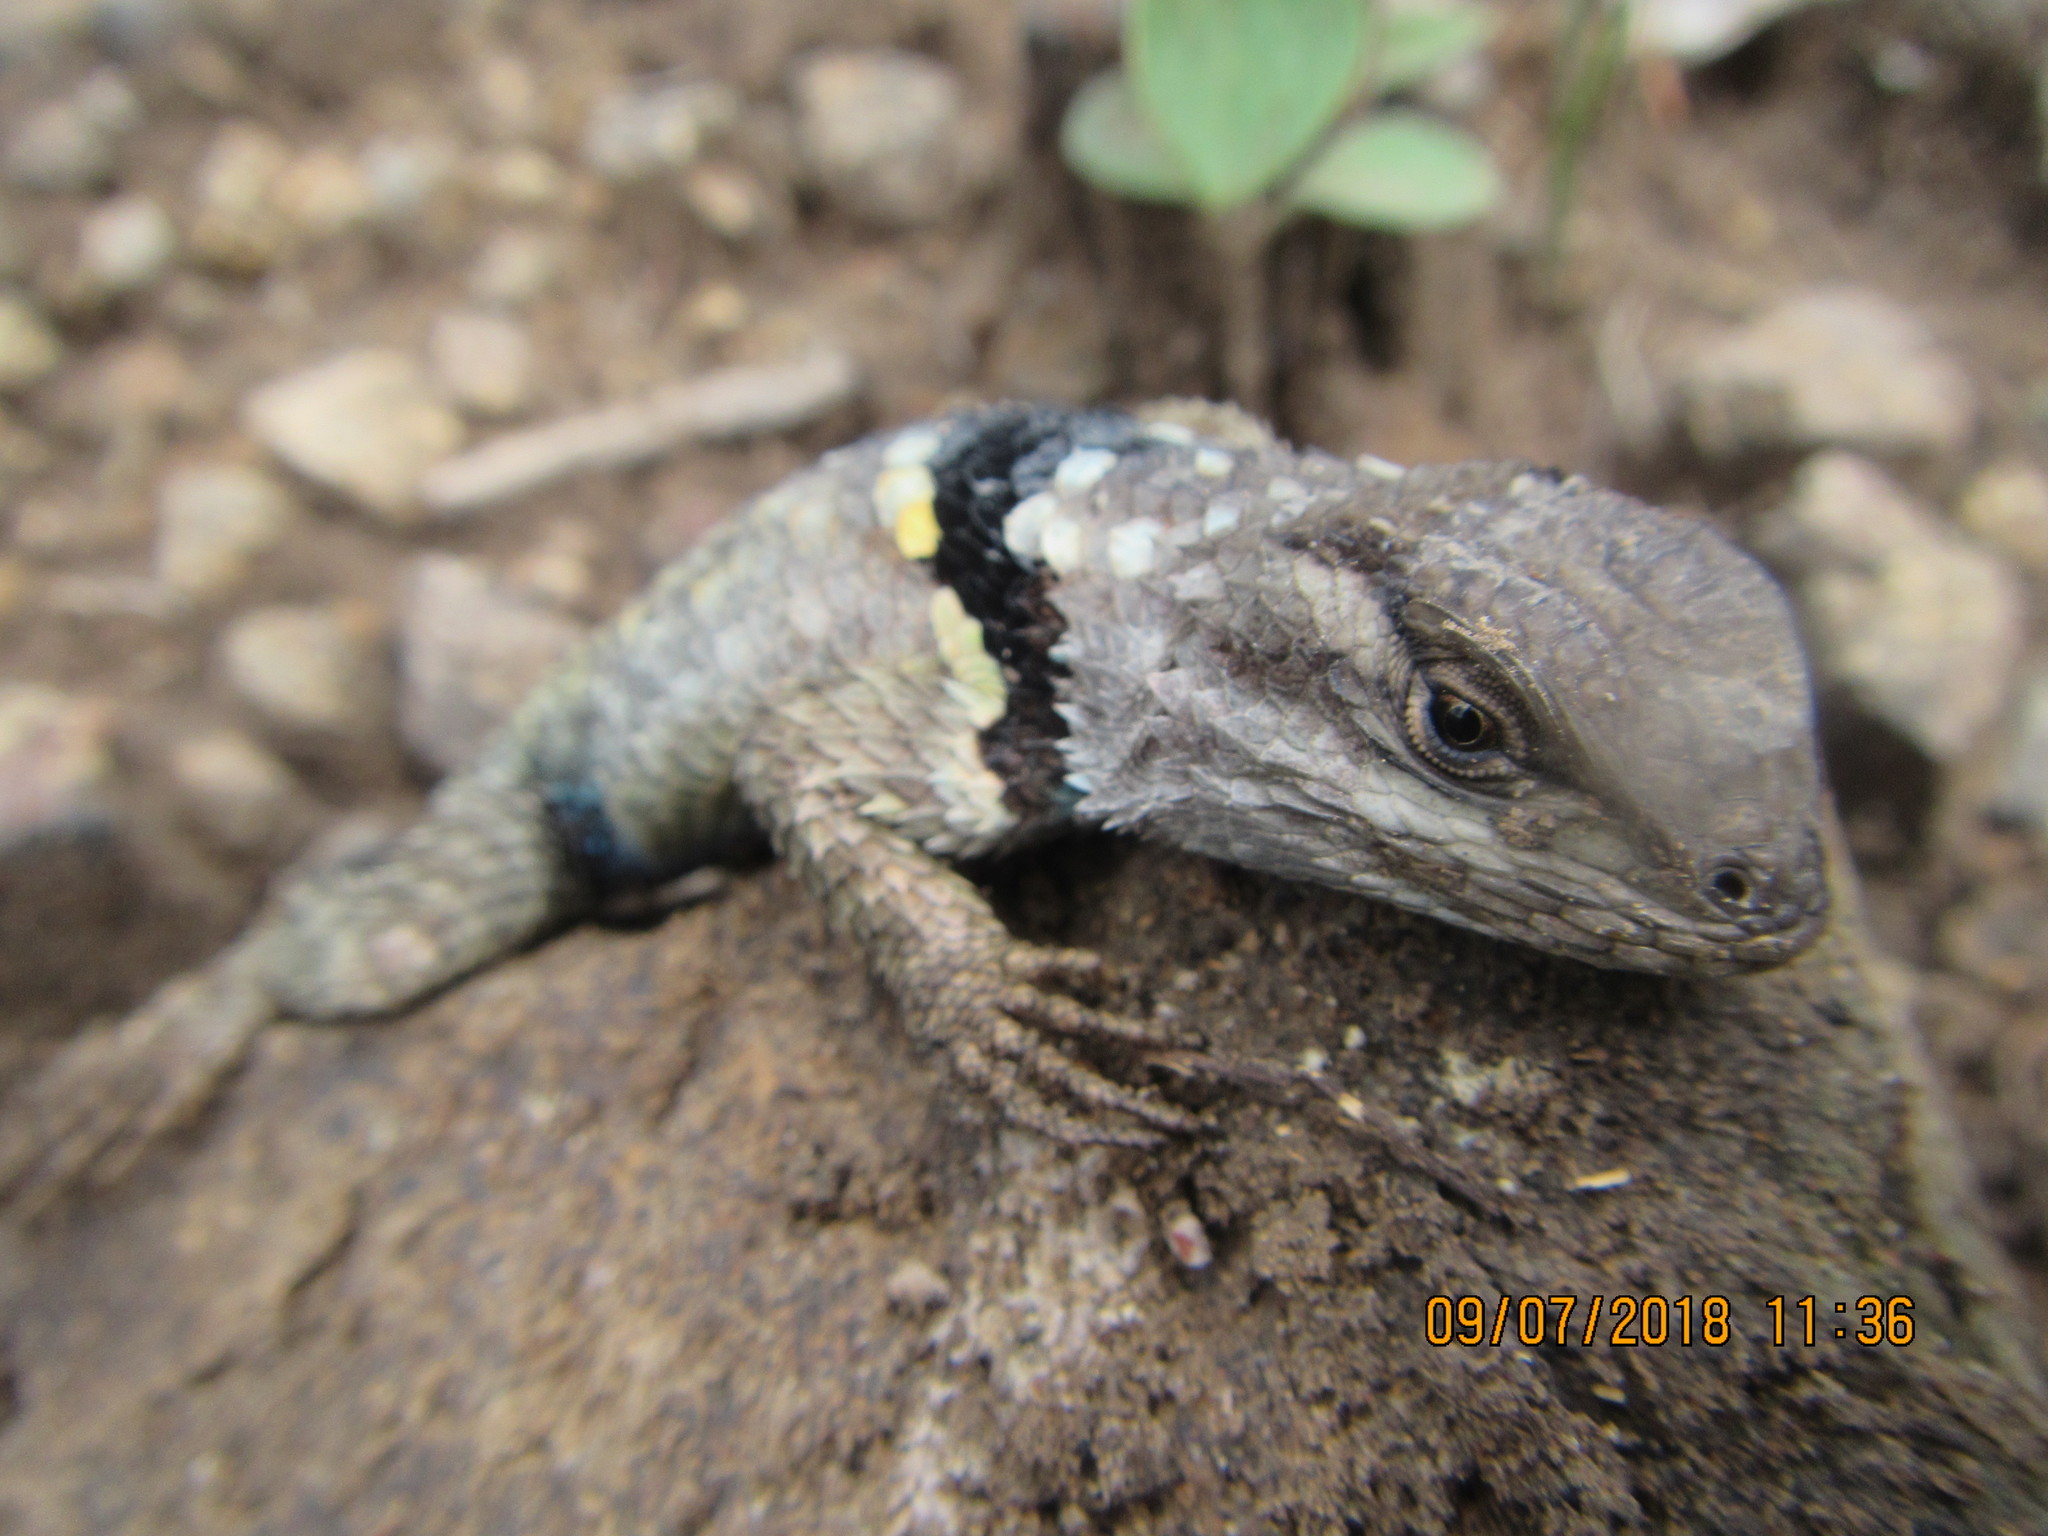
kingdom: Animalia
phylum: Chordata
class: Squamata
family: Phrynosomatidae
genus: Sceloporus
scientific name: Sceloporus torquatus
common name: Central plateau torquate lizard [melanogaster]
